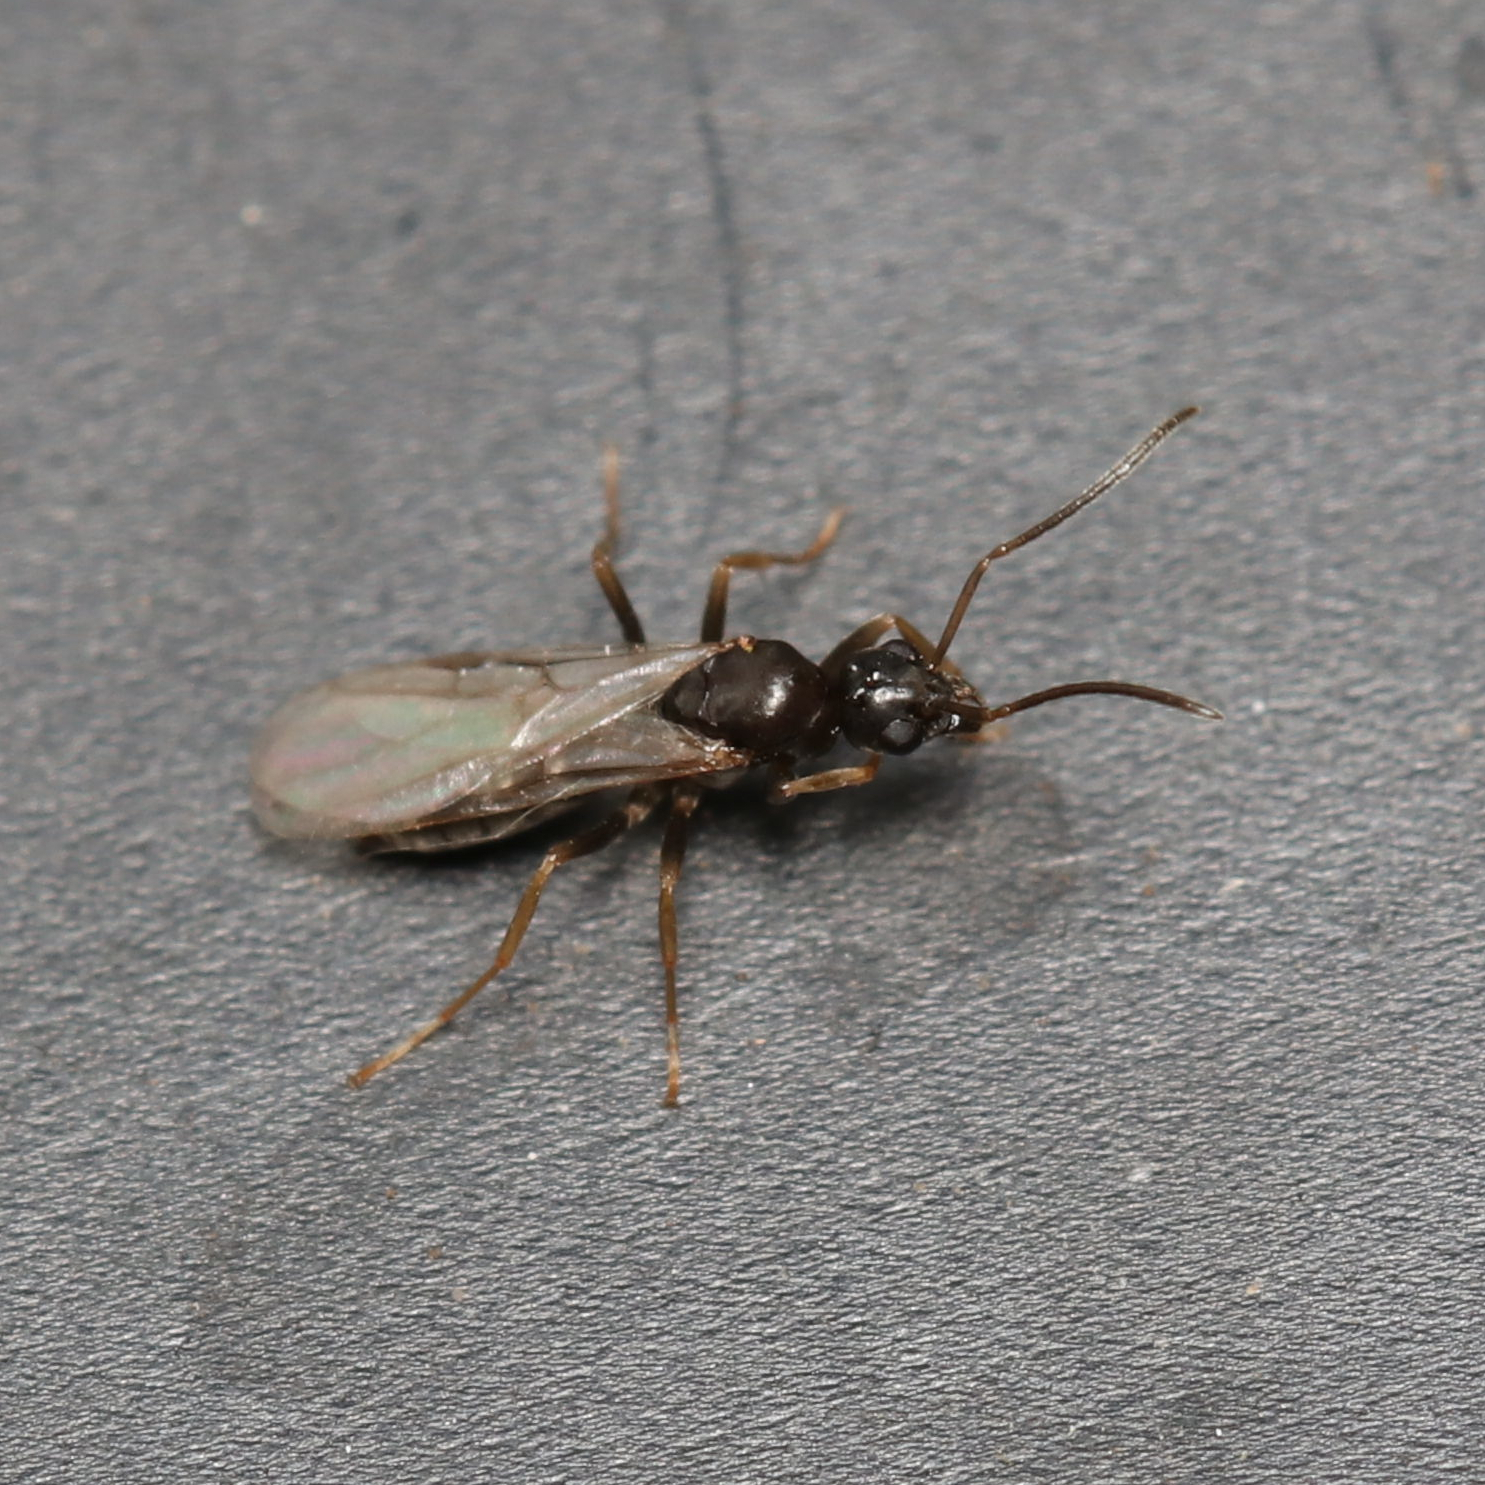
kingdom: Animalia
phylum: Arthropoda
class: Insecta
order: Hymenoptera
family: Formicidae
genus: Tapinoma
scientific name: Tapinoma sessile
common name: Odorous house ant
